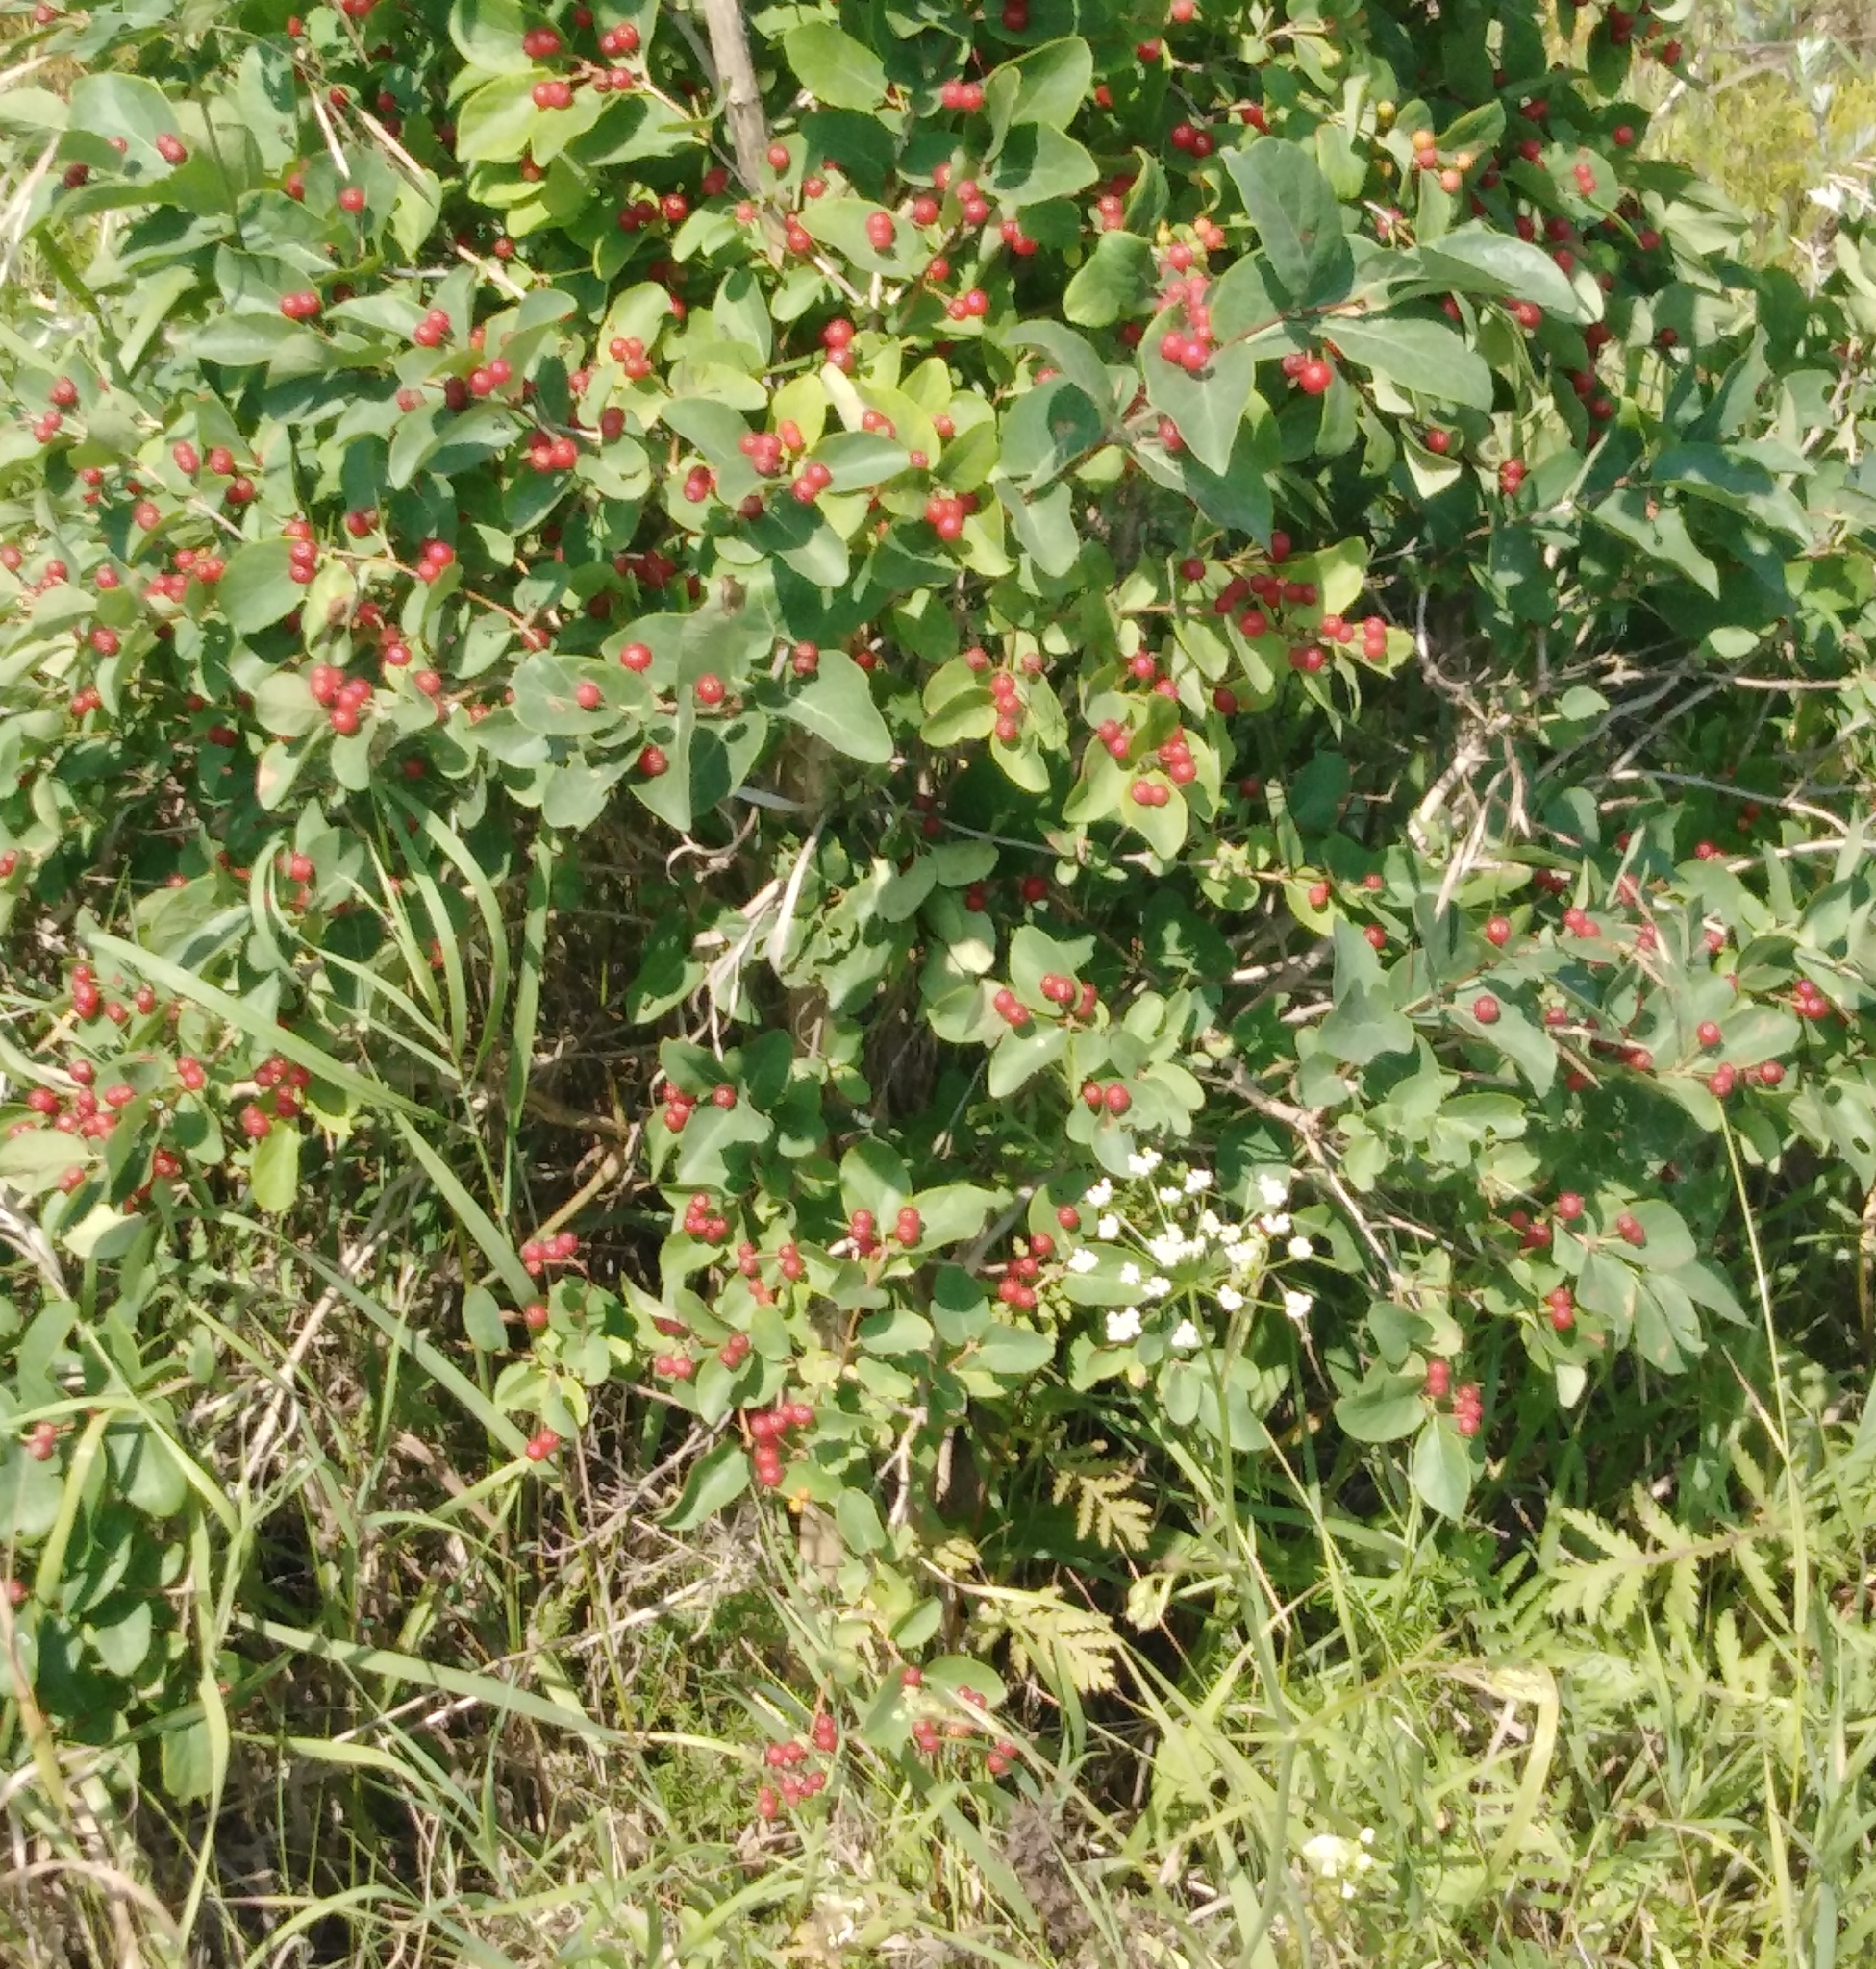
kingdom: Plantae
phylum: Tracheophyta
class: Magnoliopsida
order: Dipsacales
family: Caprifoliaceae
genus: Lonicera
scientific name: Lonicera tatarica
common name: Tatarian honeysuckle
